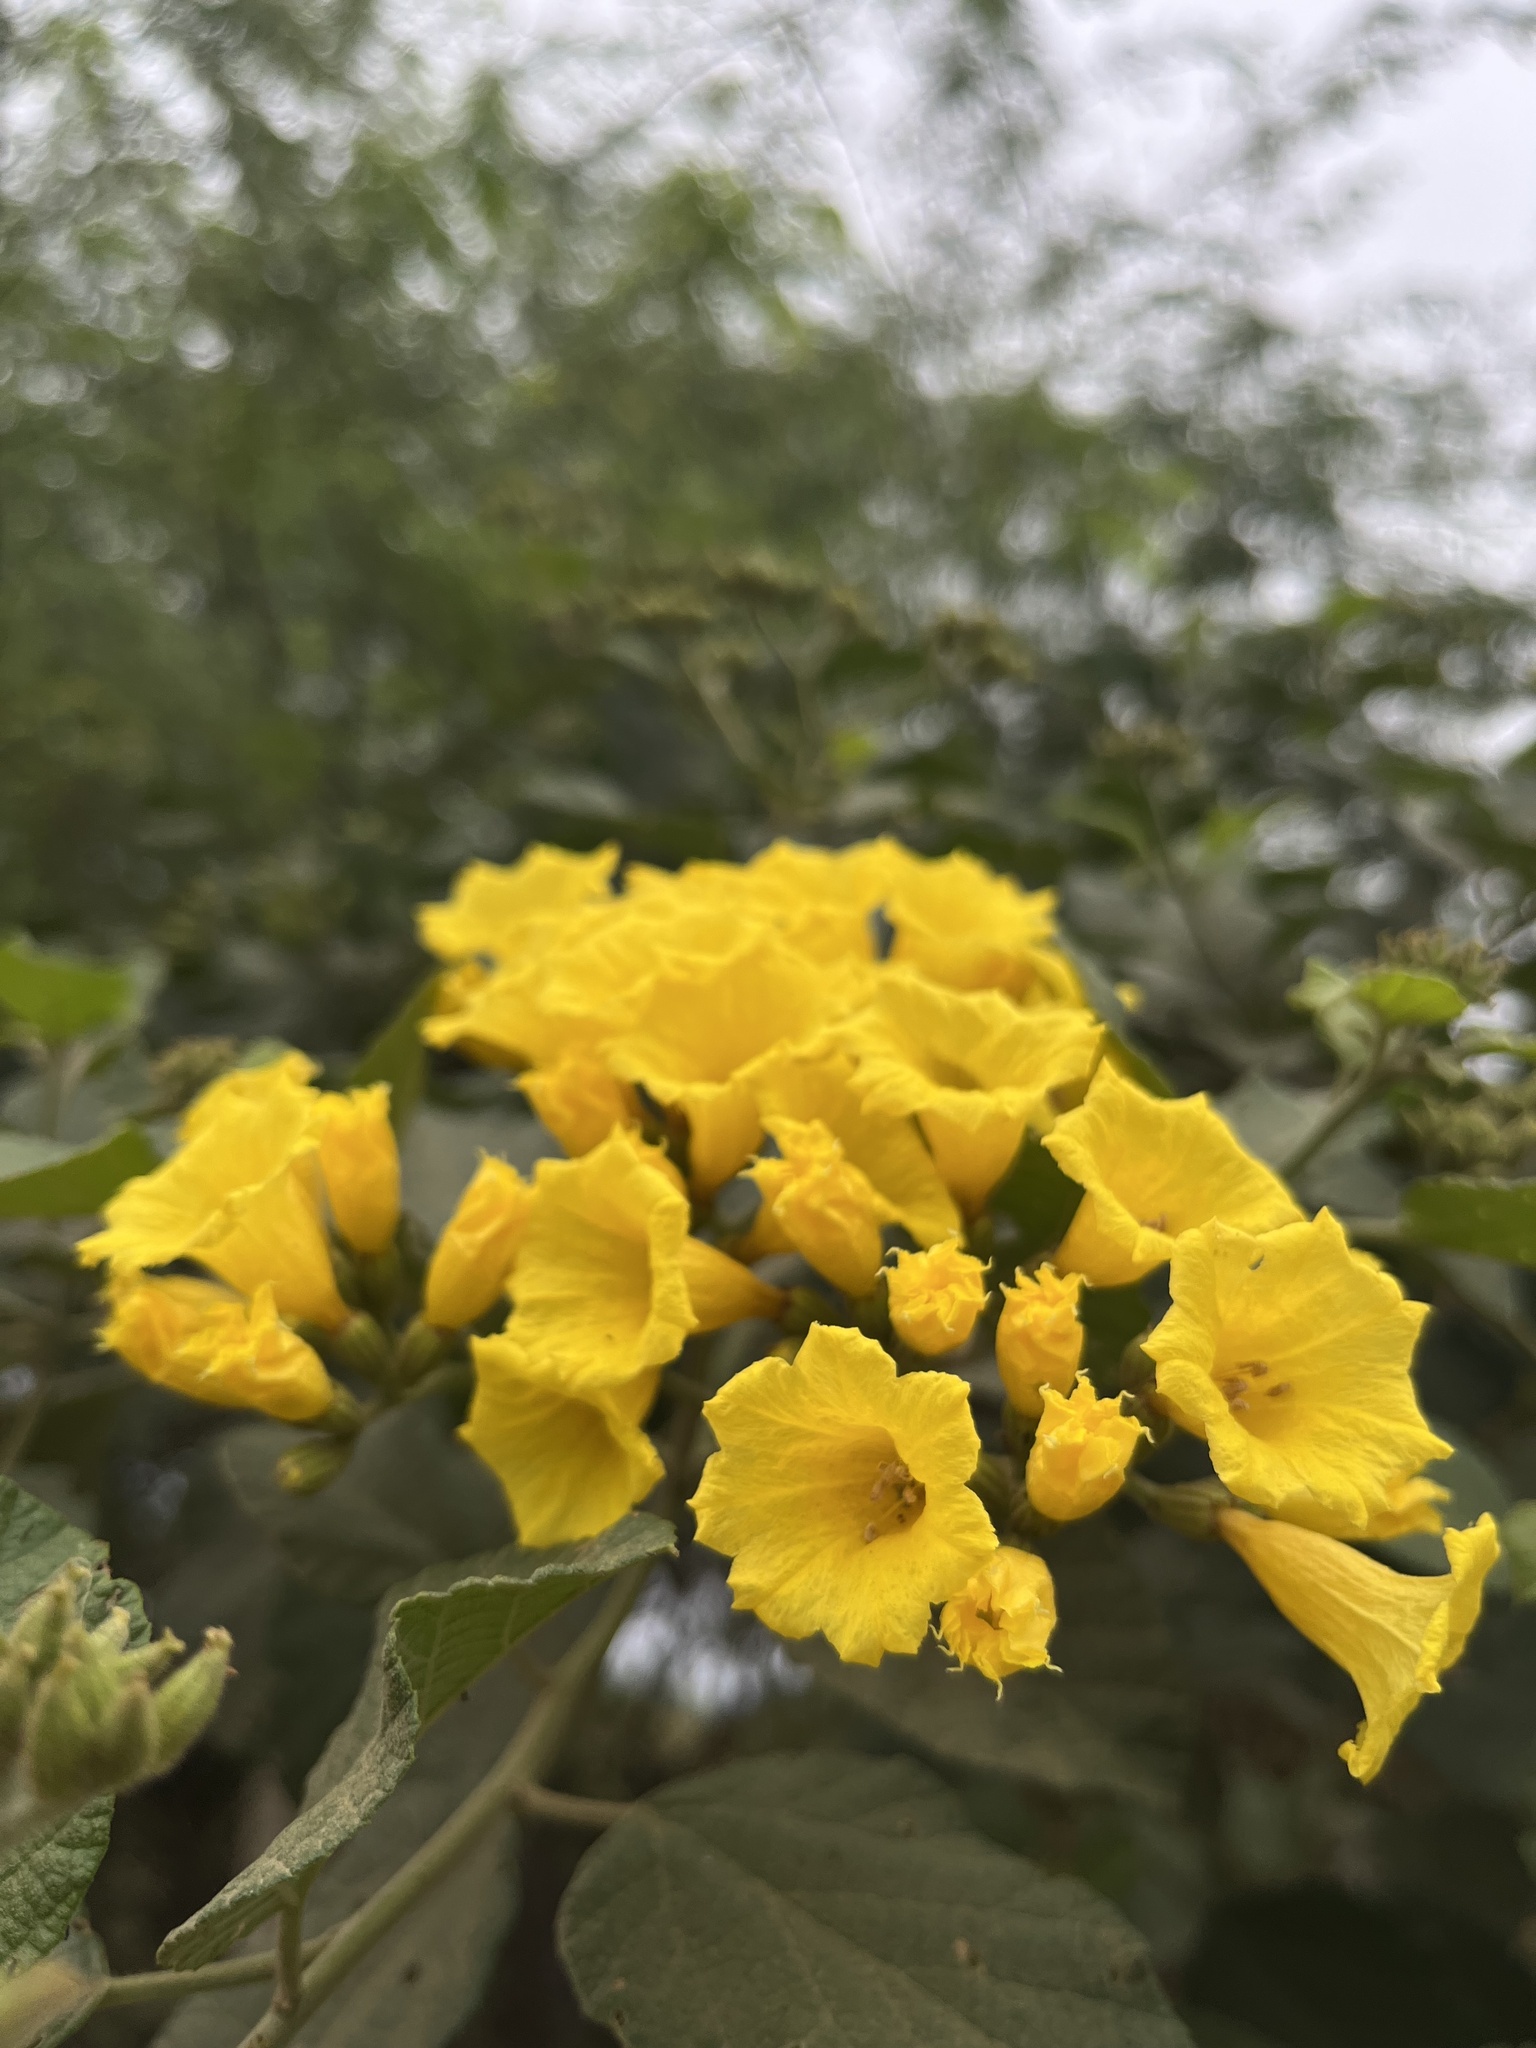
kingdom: Plantae
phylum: Tracheophyta
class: Magnoliopsida
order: Boraginales
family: Cordiaceae
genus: Cordia
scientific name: Cordia lutea
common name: Yellow geiger
